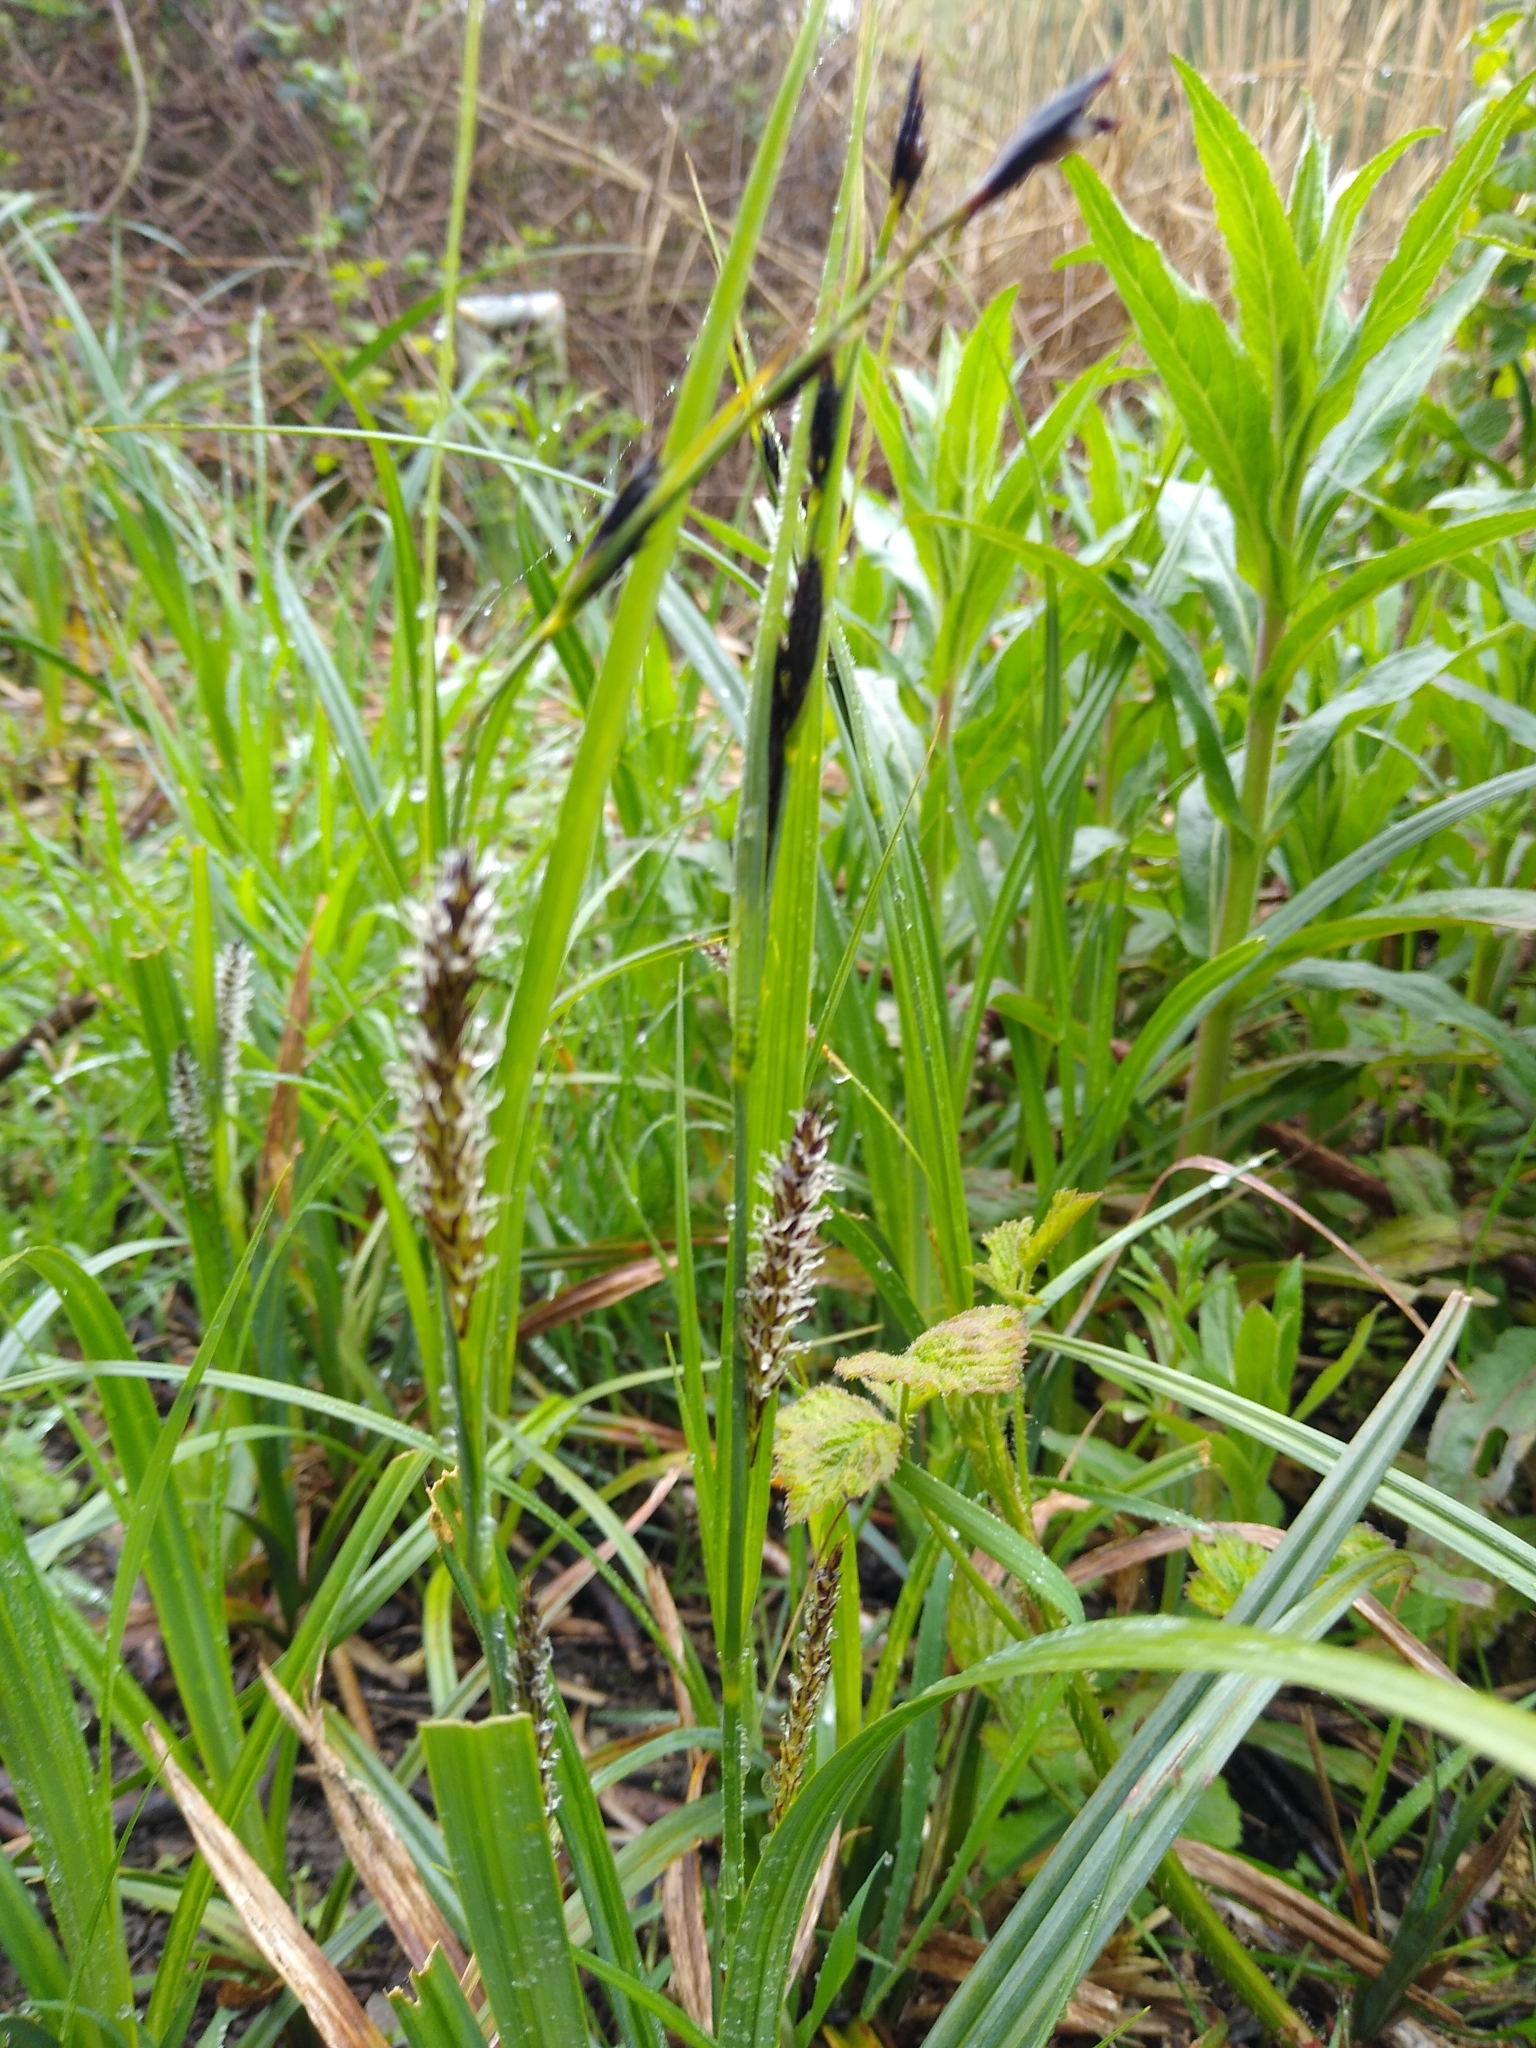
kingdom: Plantae
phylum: Tracheophyta
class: Liliopsida
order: Poales
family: Cyperaceae
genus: Carex
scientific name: Carex riparia
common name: Greater pond-sedge
